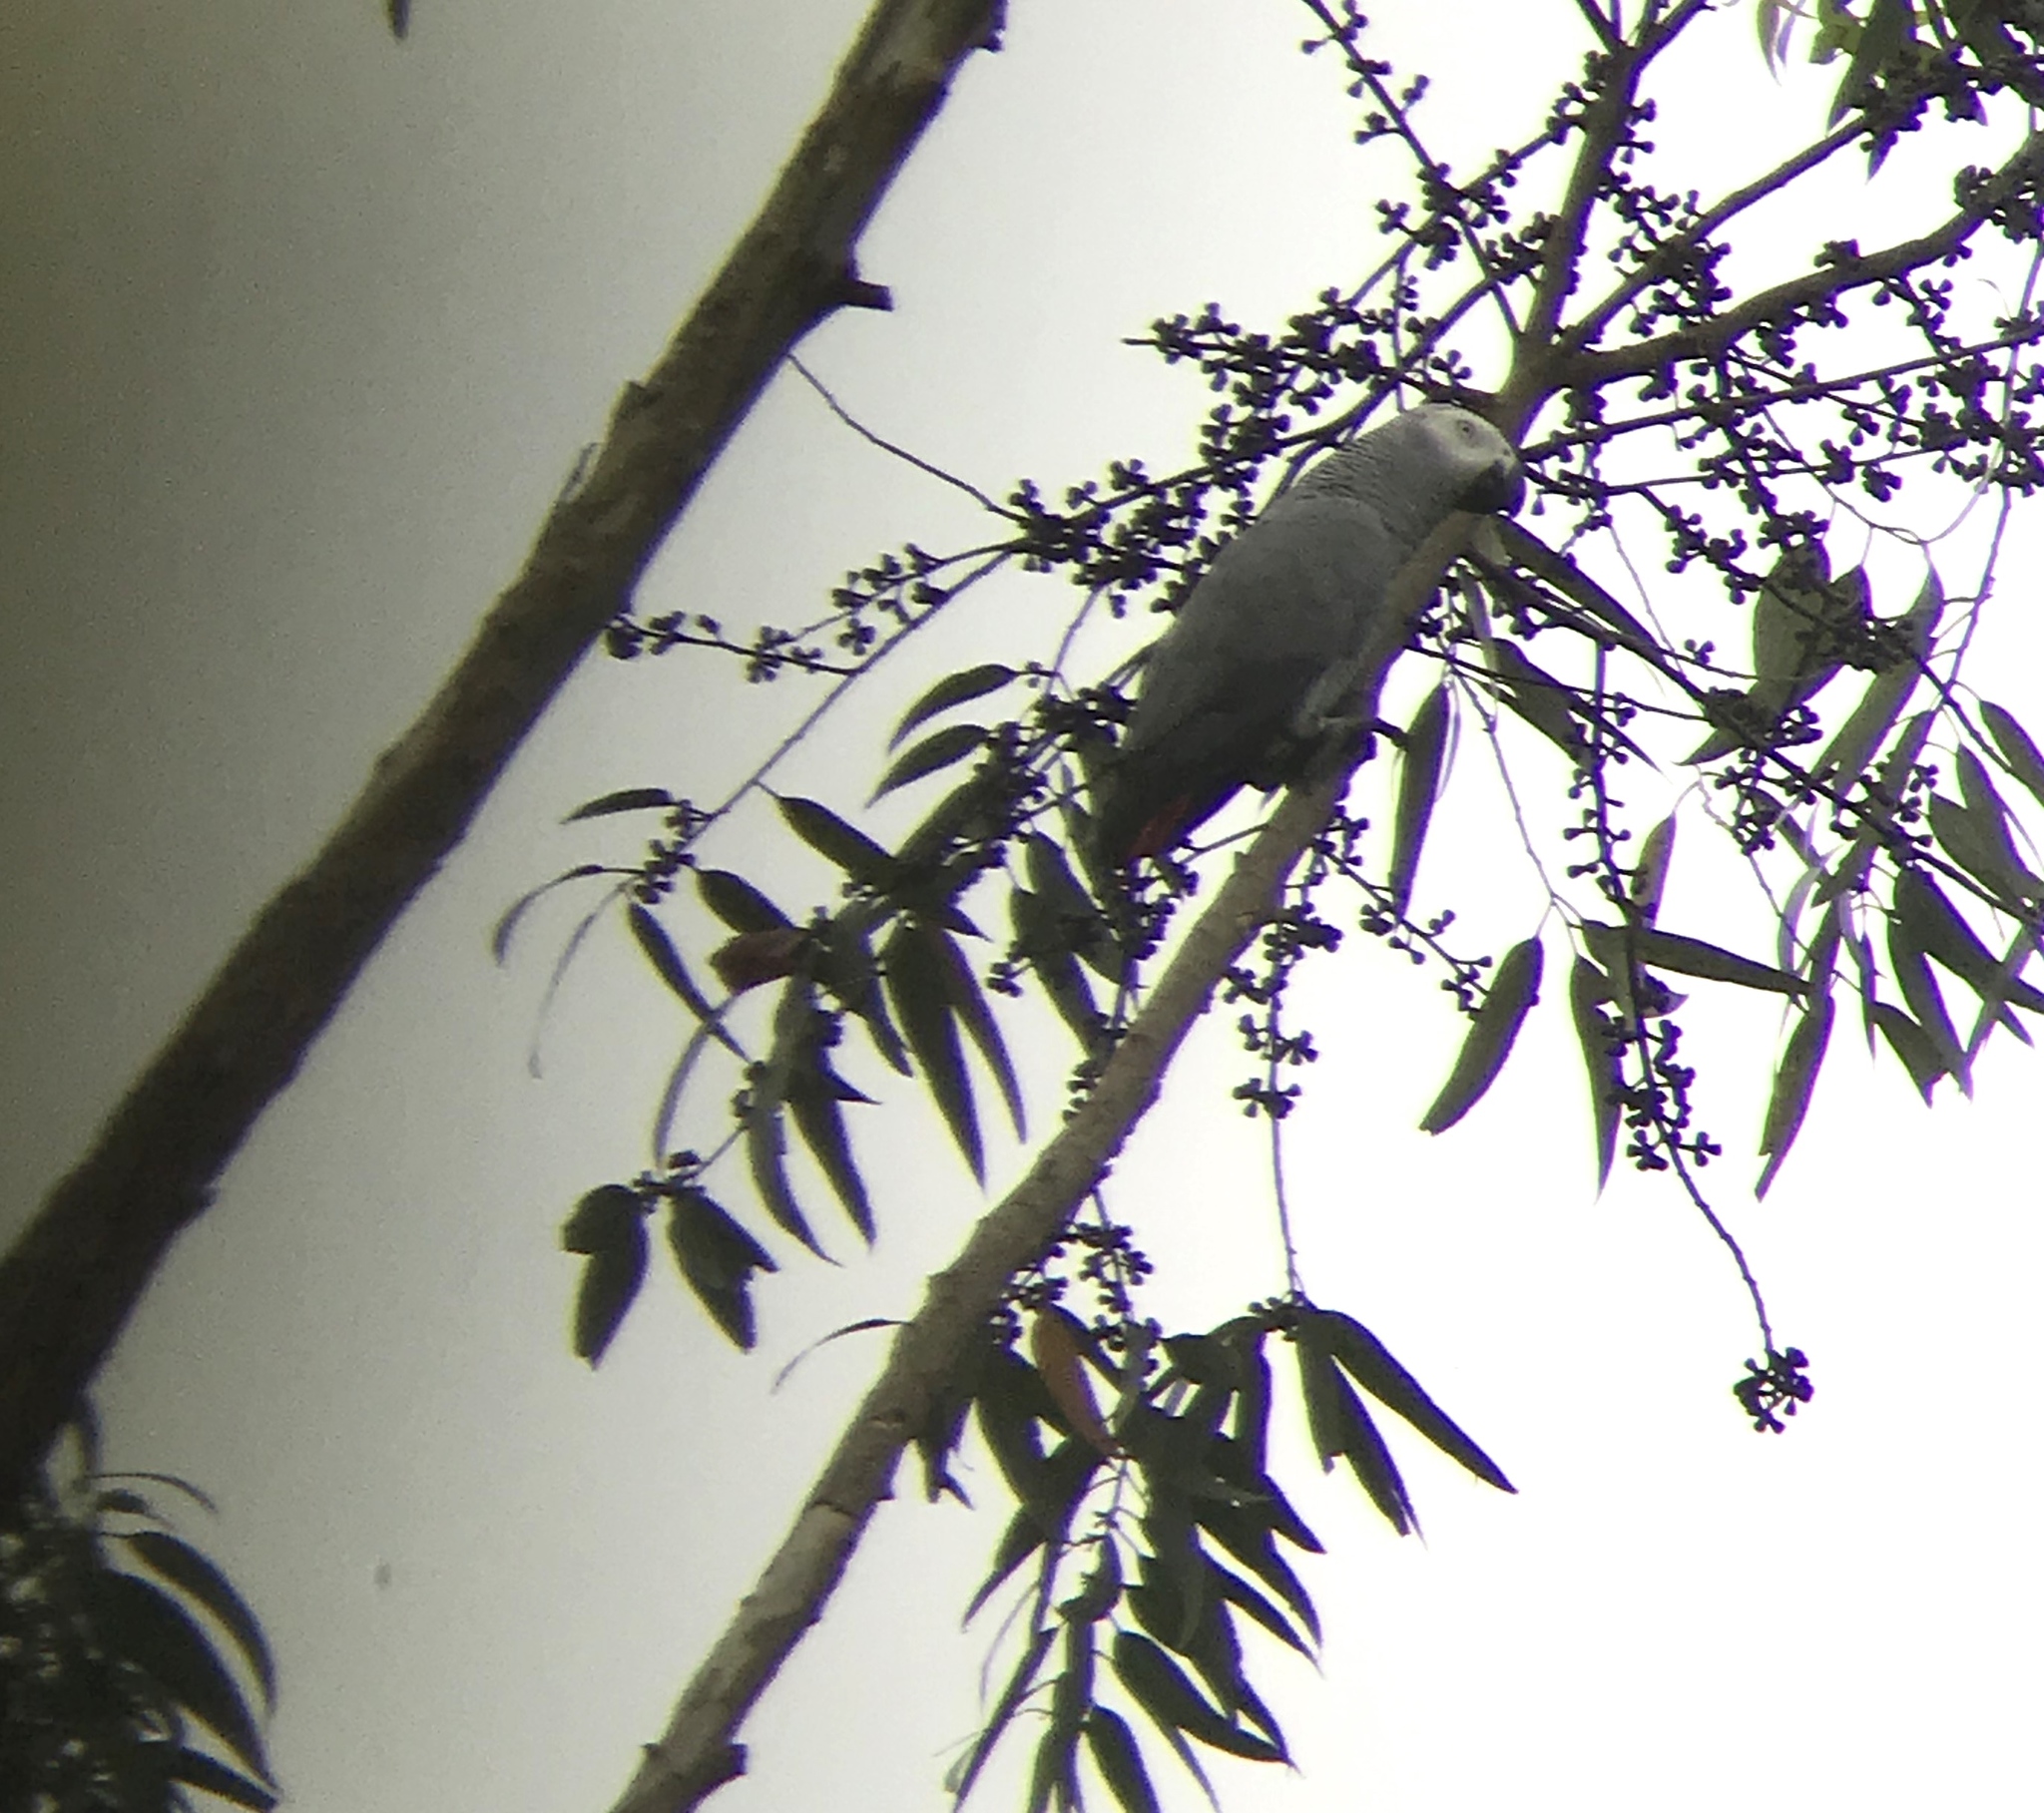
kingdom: Animalia
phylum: Chordata
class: Aves
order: Psittaciformes
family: Psittacidae
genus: Psittacus
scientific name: Psittacus erithacus
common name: Grey parrot
